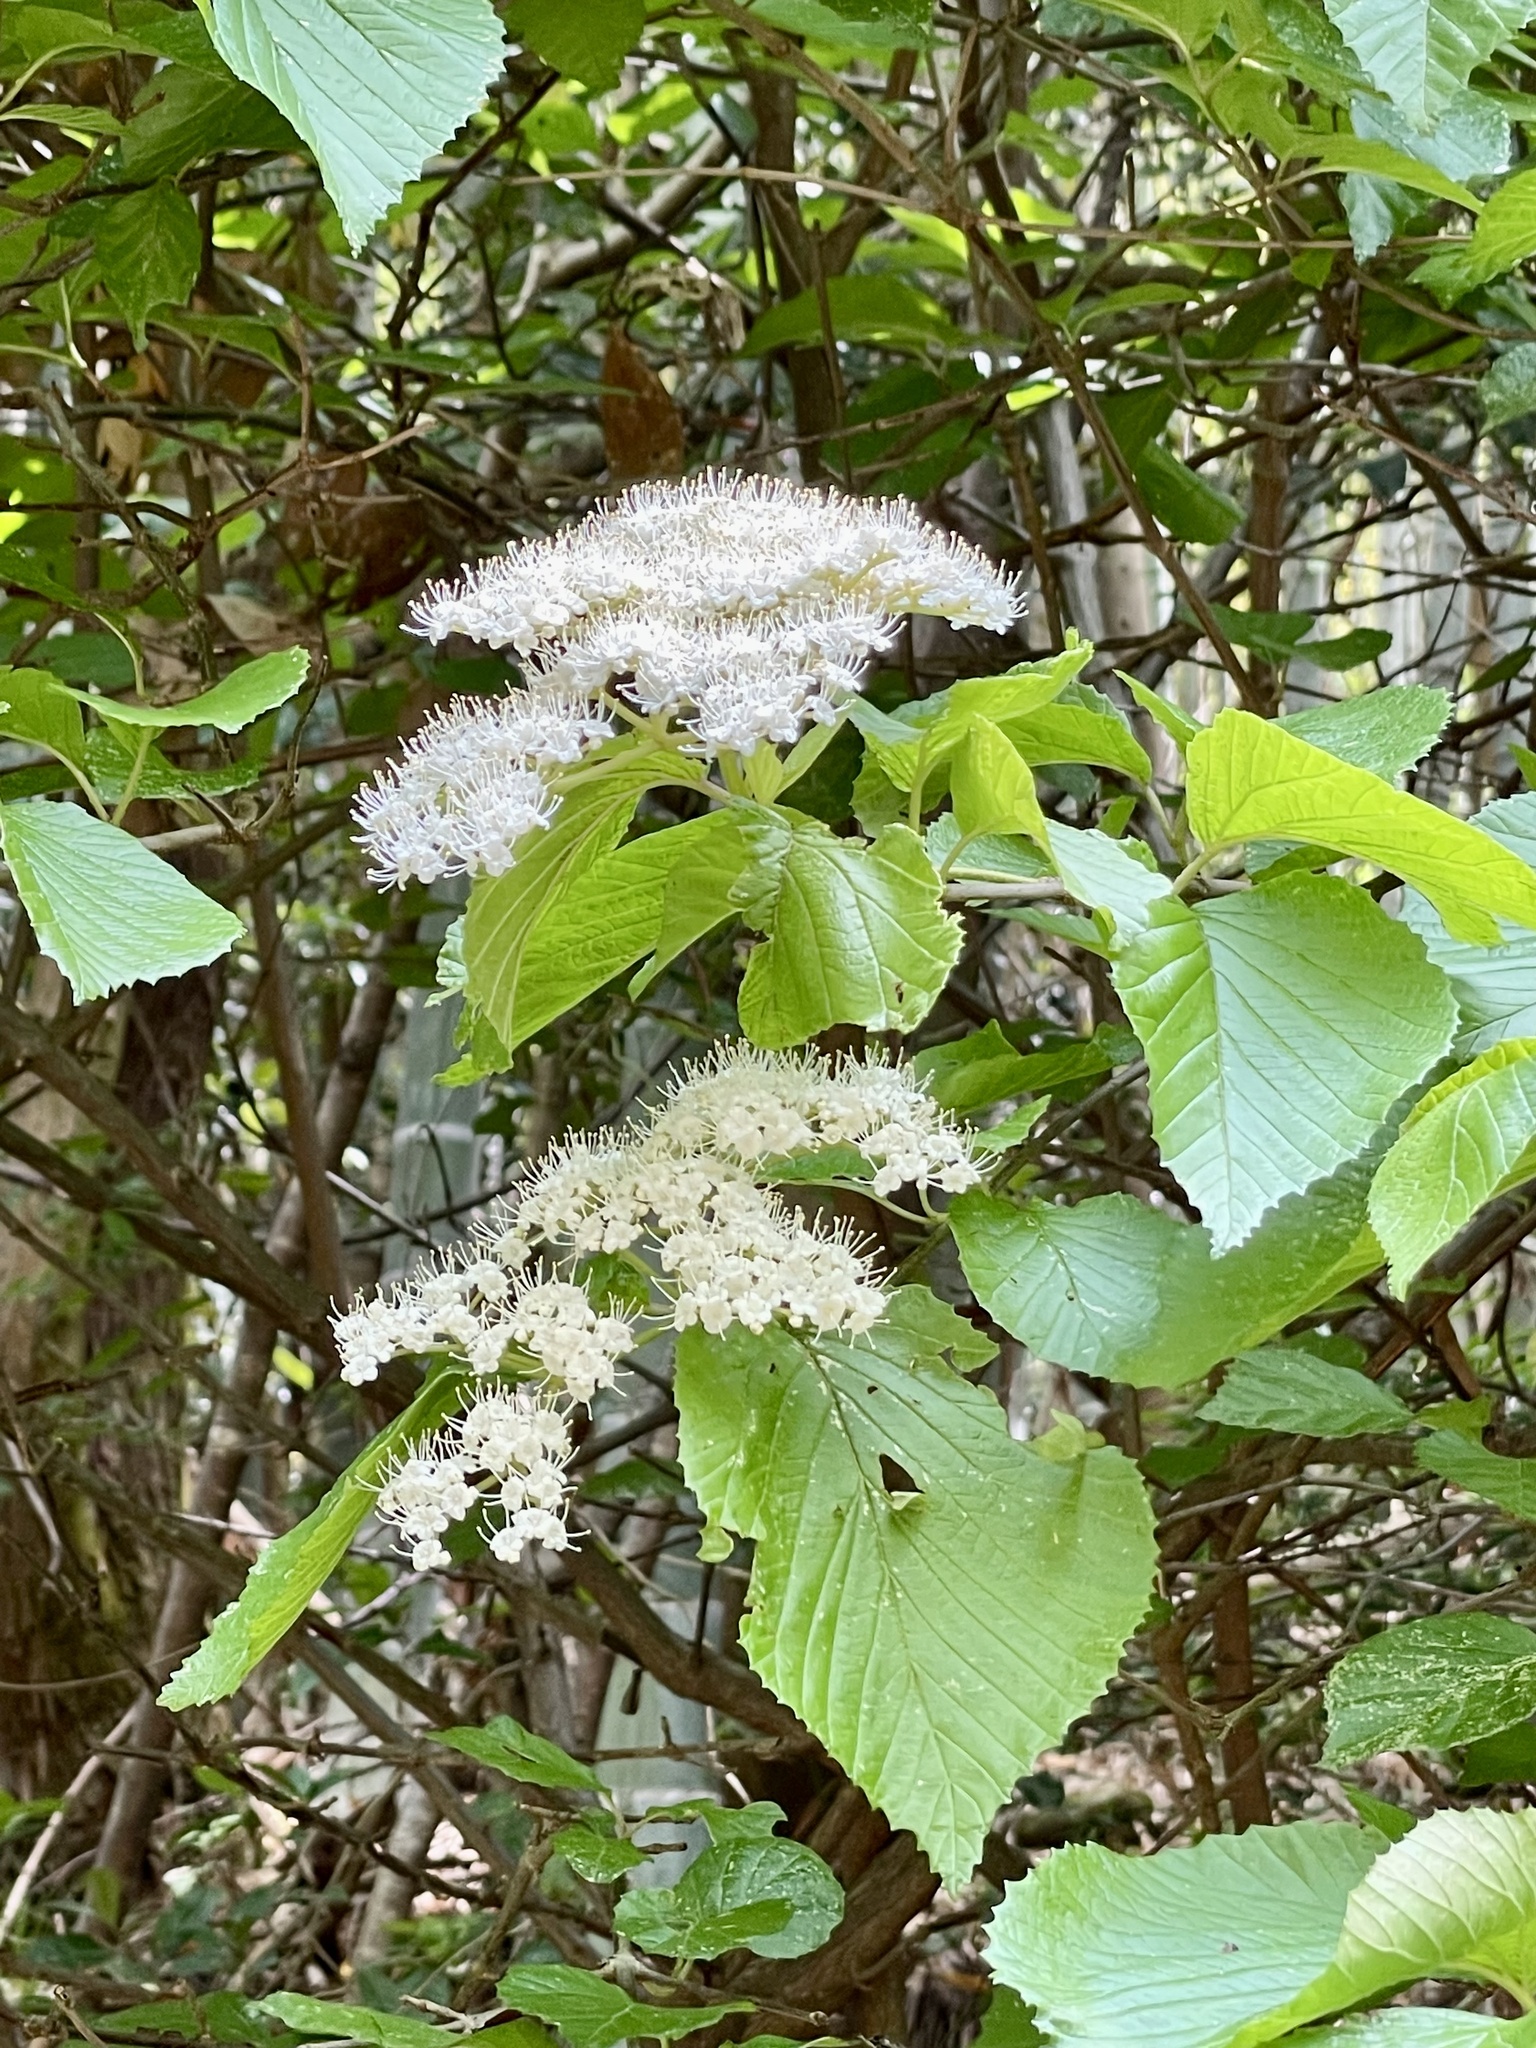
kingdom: Plantae
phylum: Tracheophyta
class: Magnoliopsida
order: Dipsacales
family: Viburnaceae
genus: Viburnum
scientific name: Viburnum dilatatum
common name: Linden arrowwood
